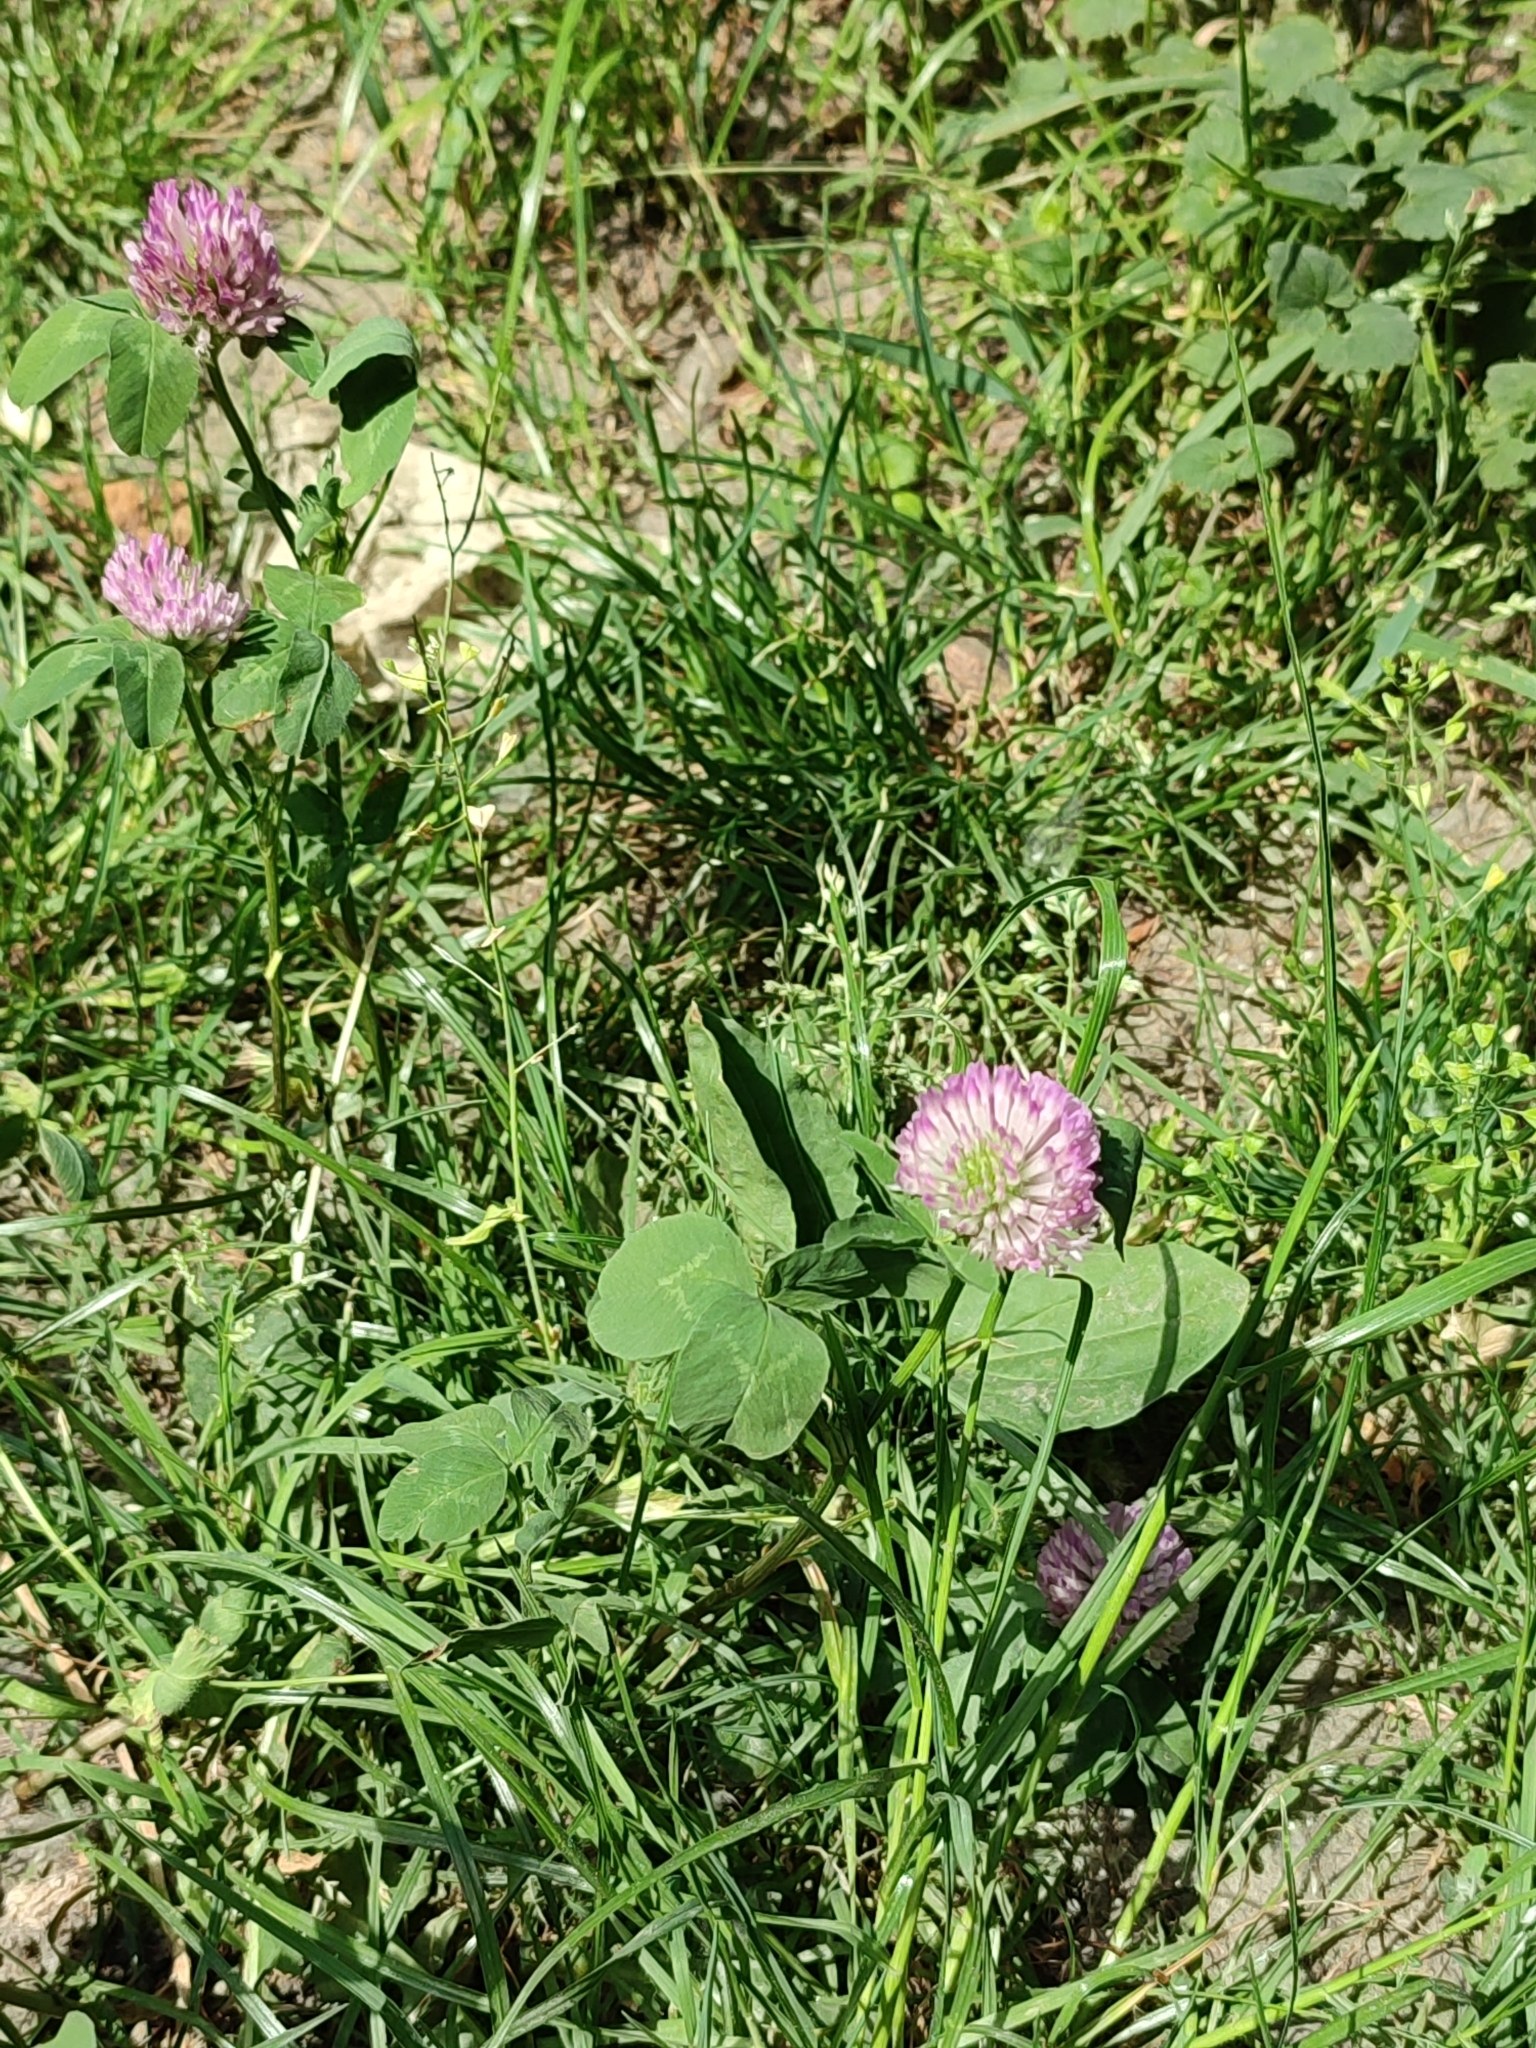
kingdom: Plantae
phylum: Tracheophyta
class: Magnoliopsida
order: Fabales
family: Fabaceae
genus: Trifolium
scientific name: Trifolium pratense
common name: Red clover
